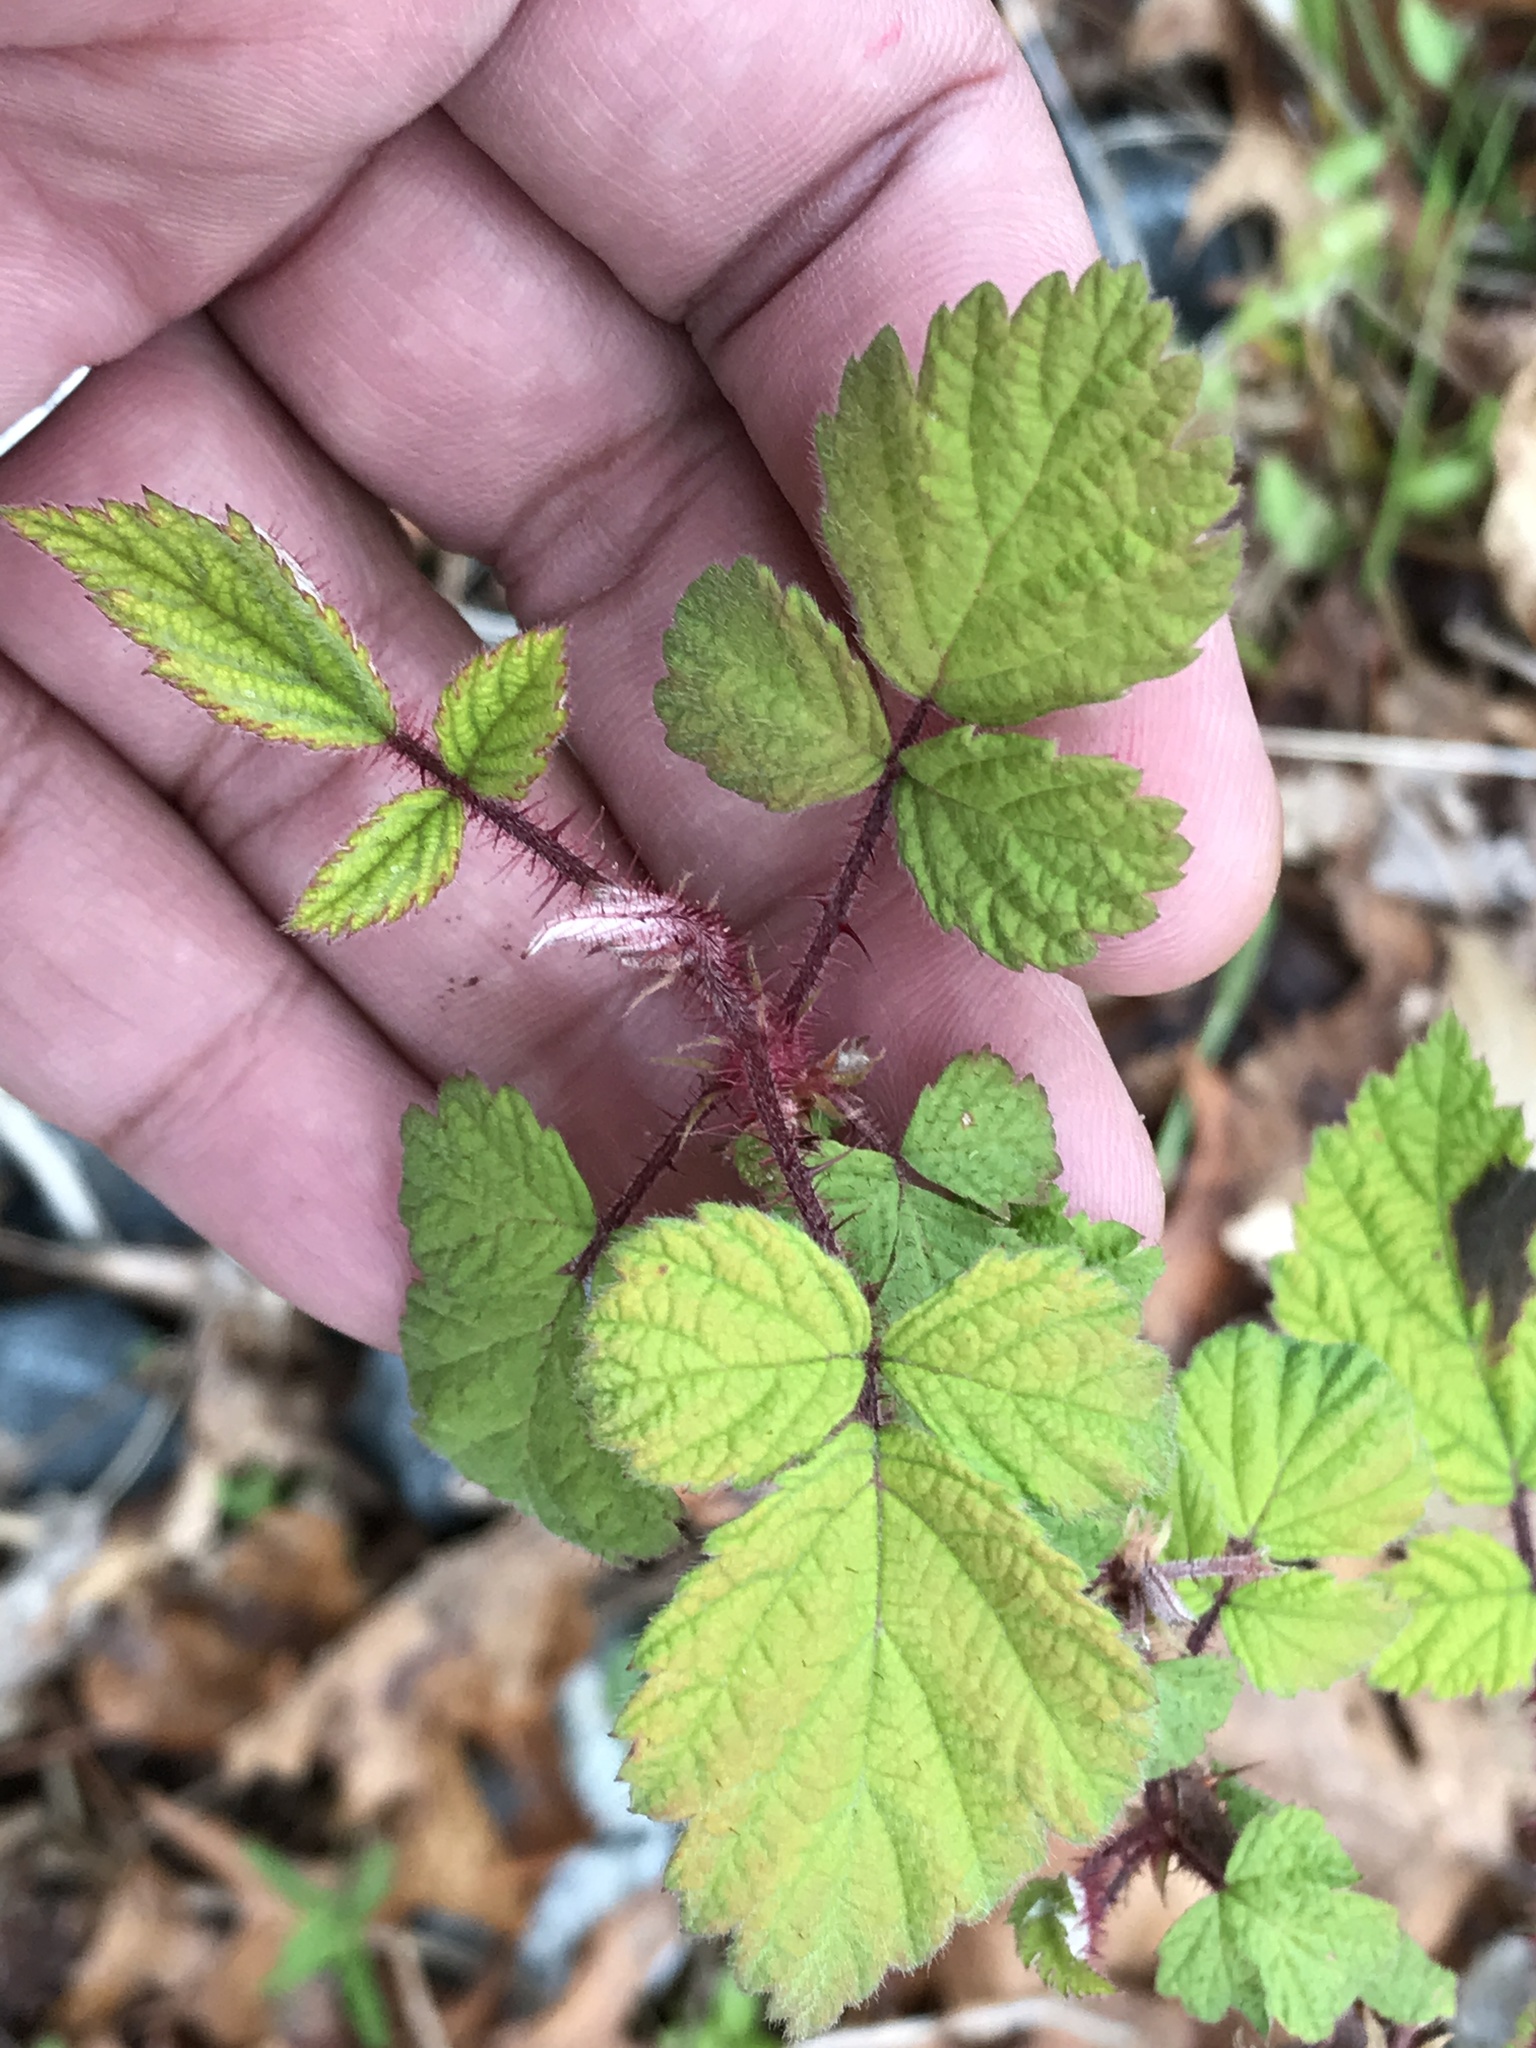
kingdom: Plantae
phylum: Tracheophyta
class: Magnoliopsida
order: Rosales
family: Rosaceae
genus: Rubus
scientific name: Rubus phoenicolasius
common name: Japanese wineberry
